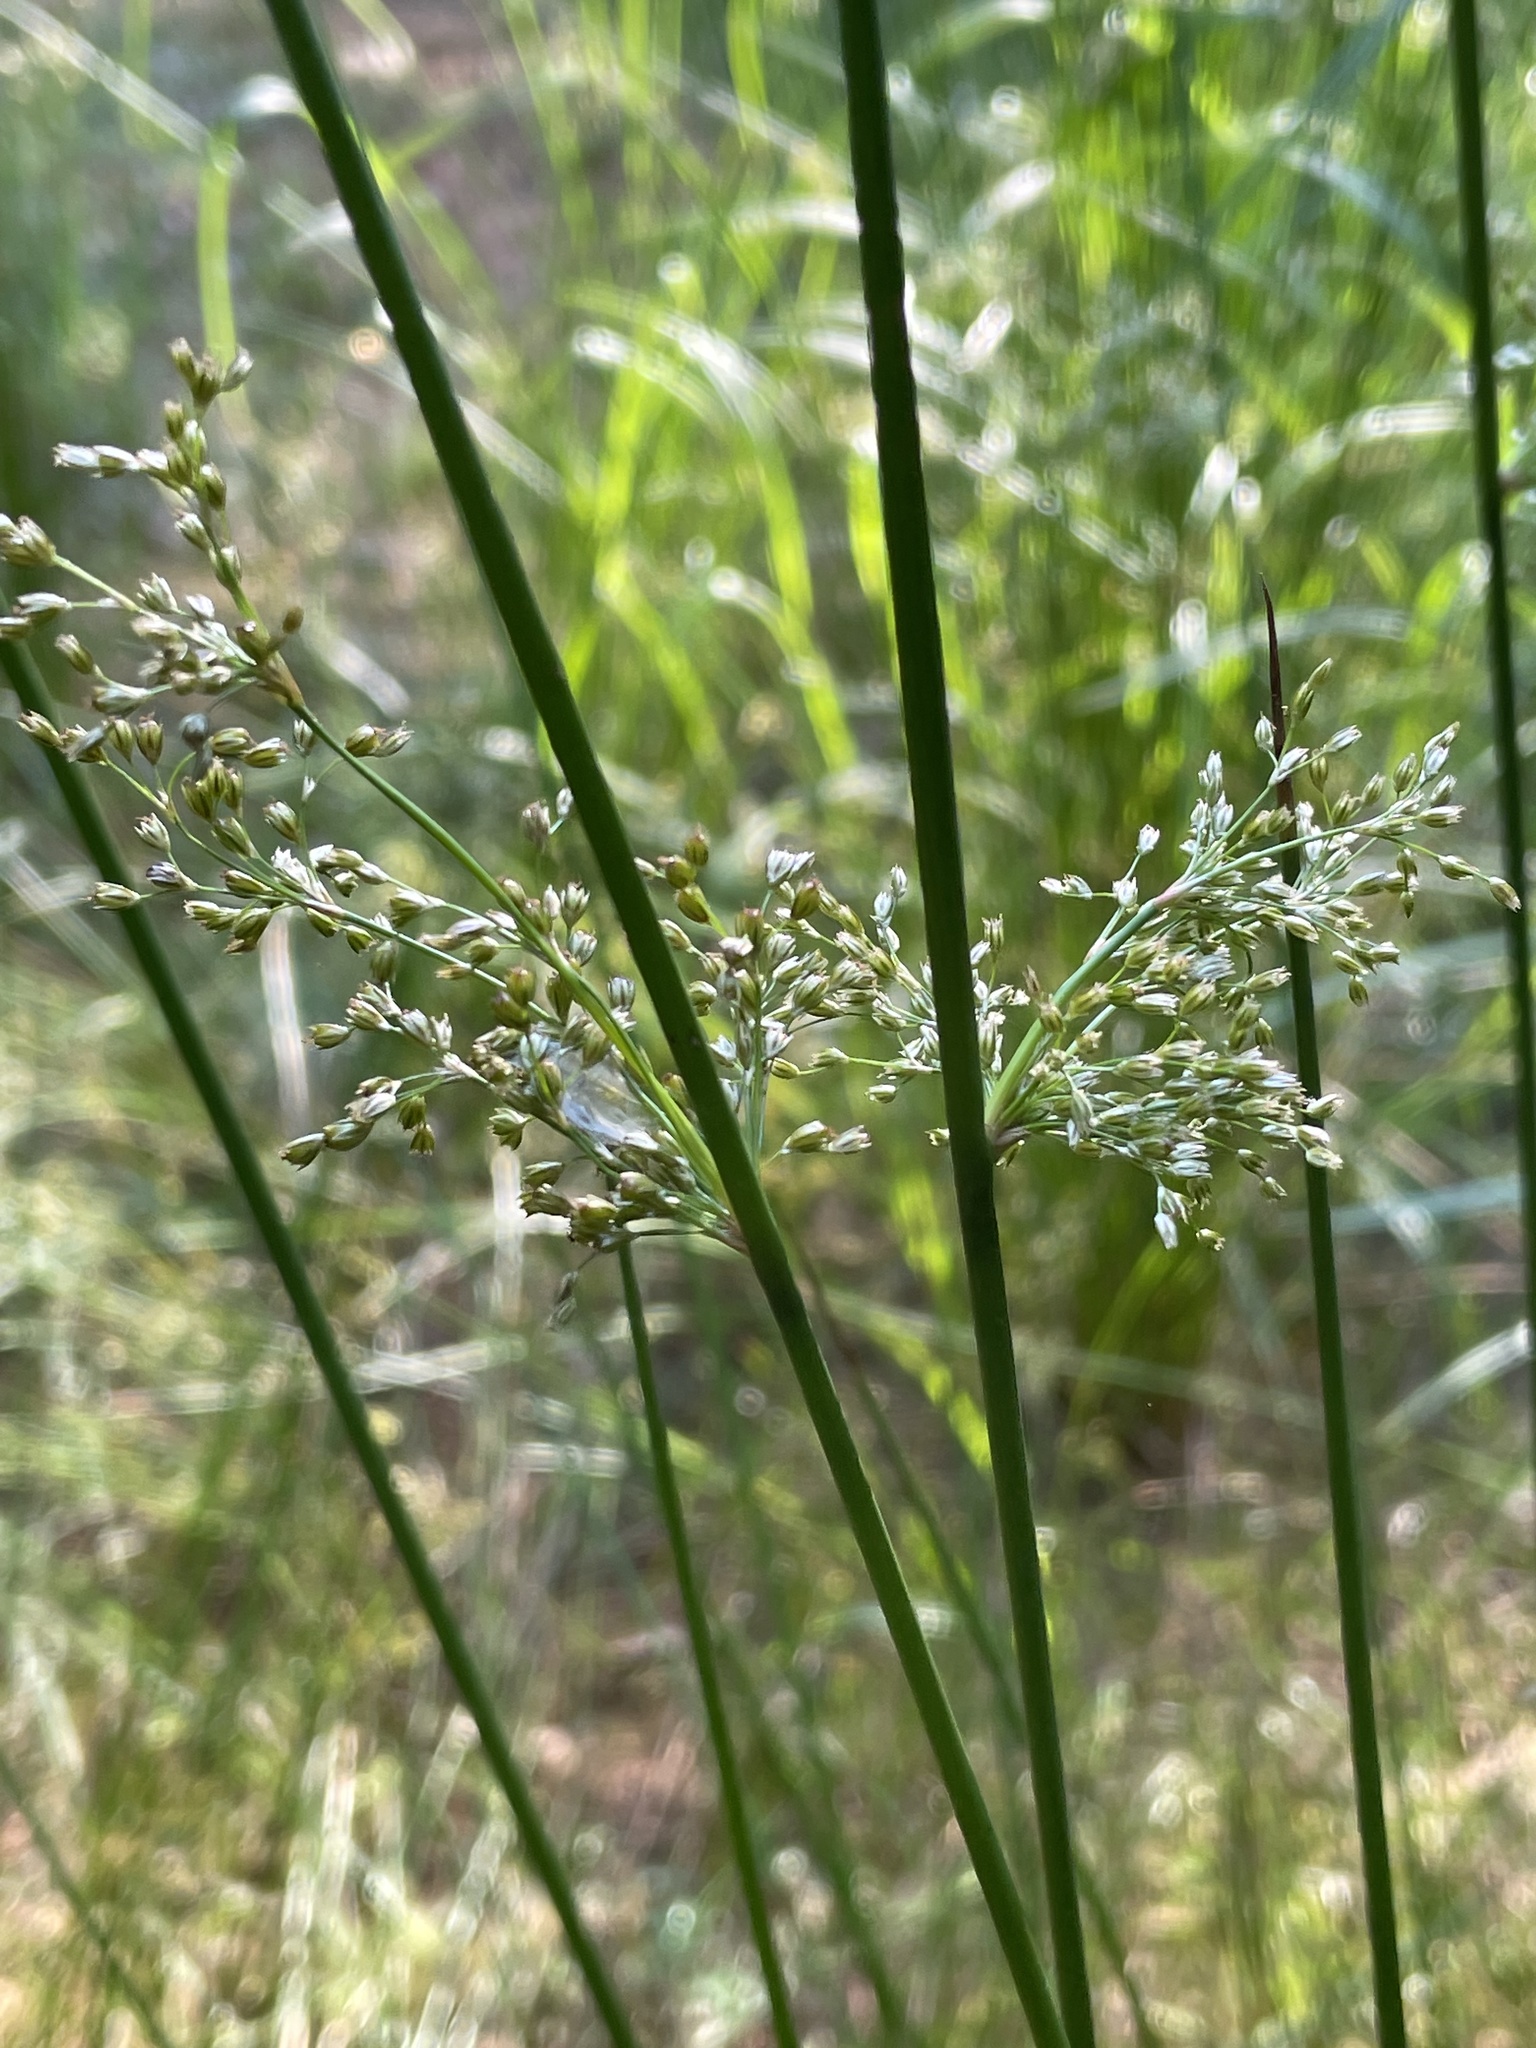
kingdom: Plantae
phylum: Tracheophyta
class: Liliopsida
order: Poales
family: Juncaceae
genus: Juncus
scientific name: Juncus effusus
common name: Soft rush
